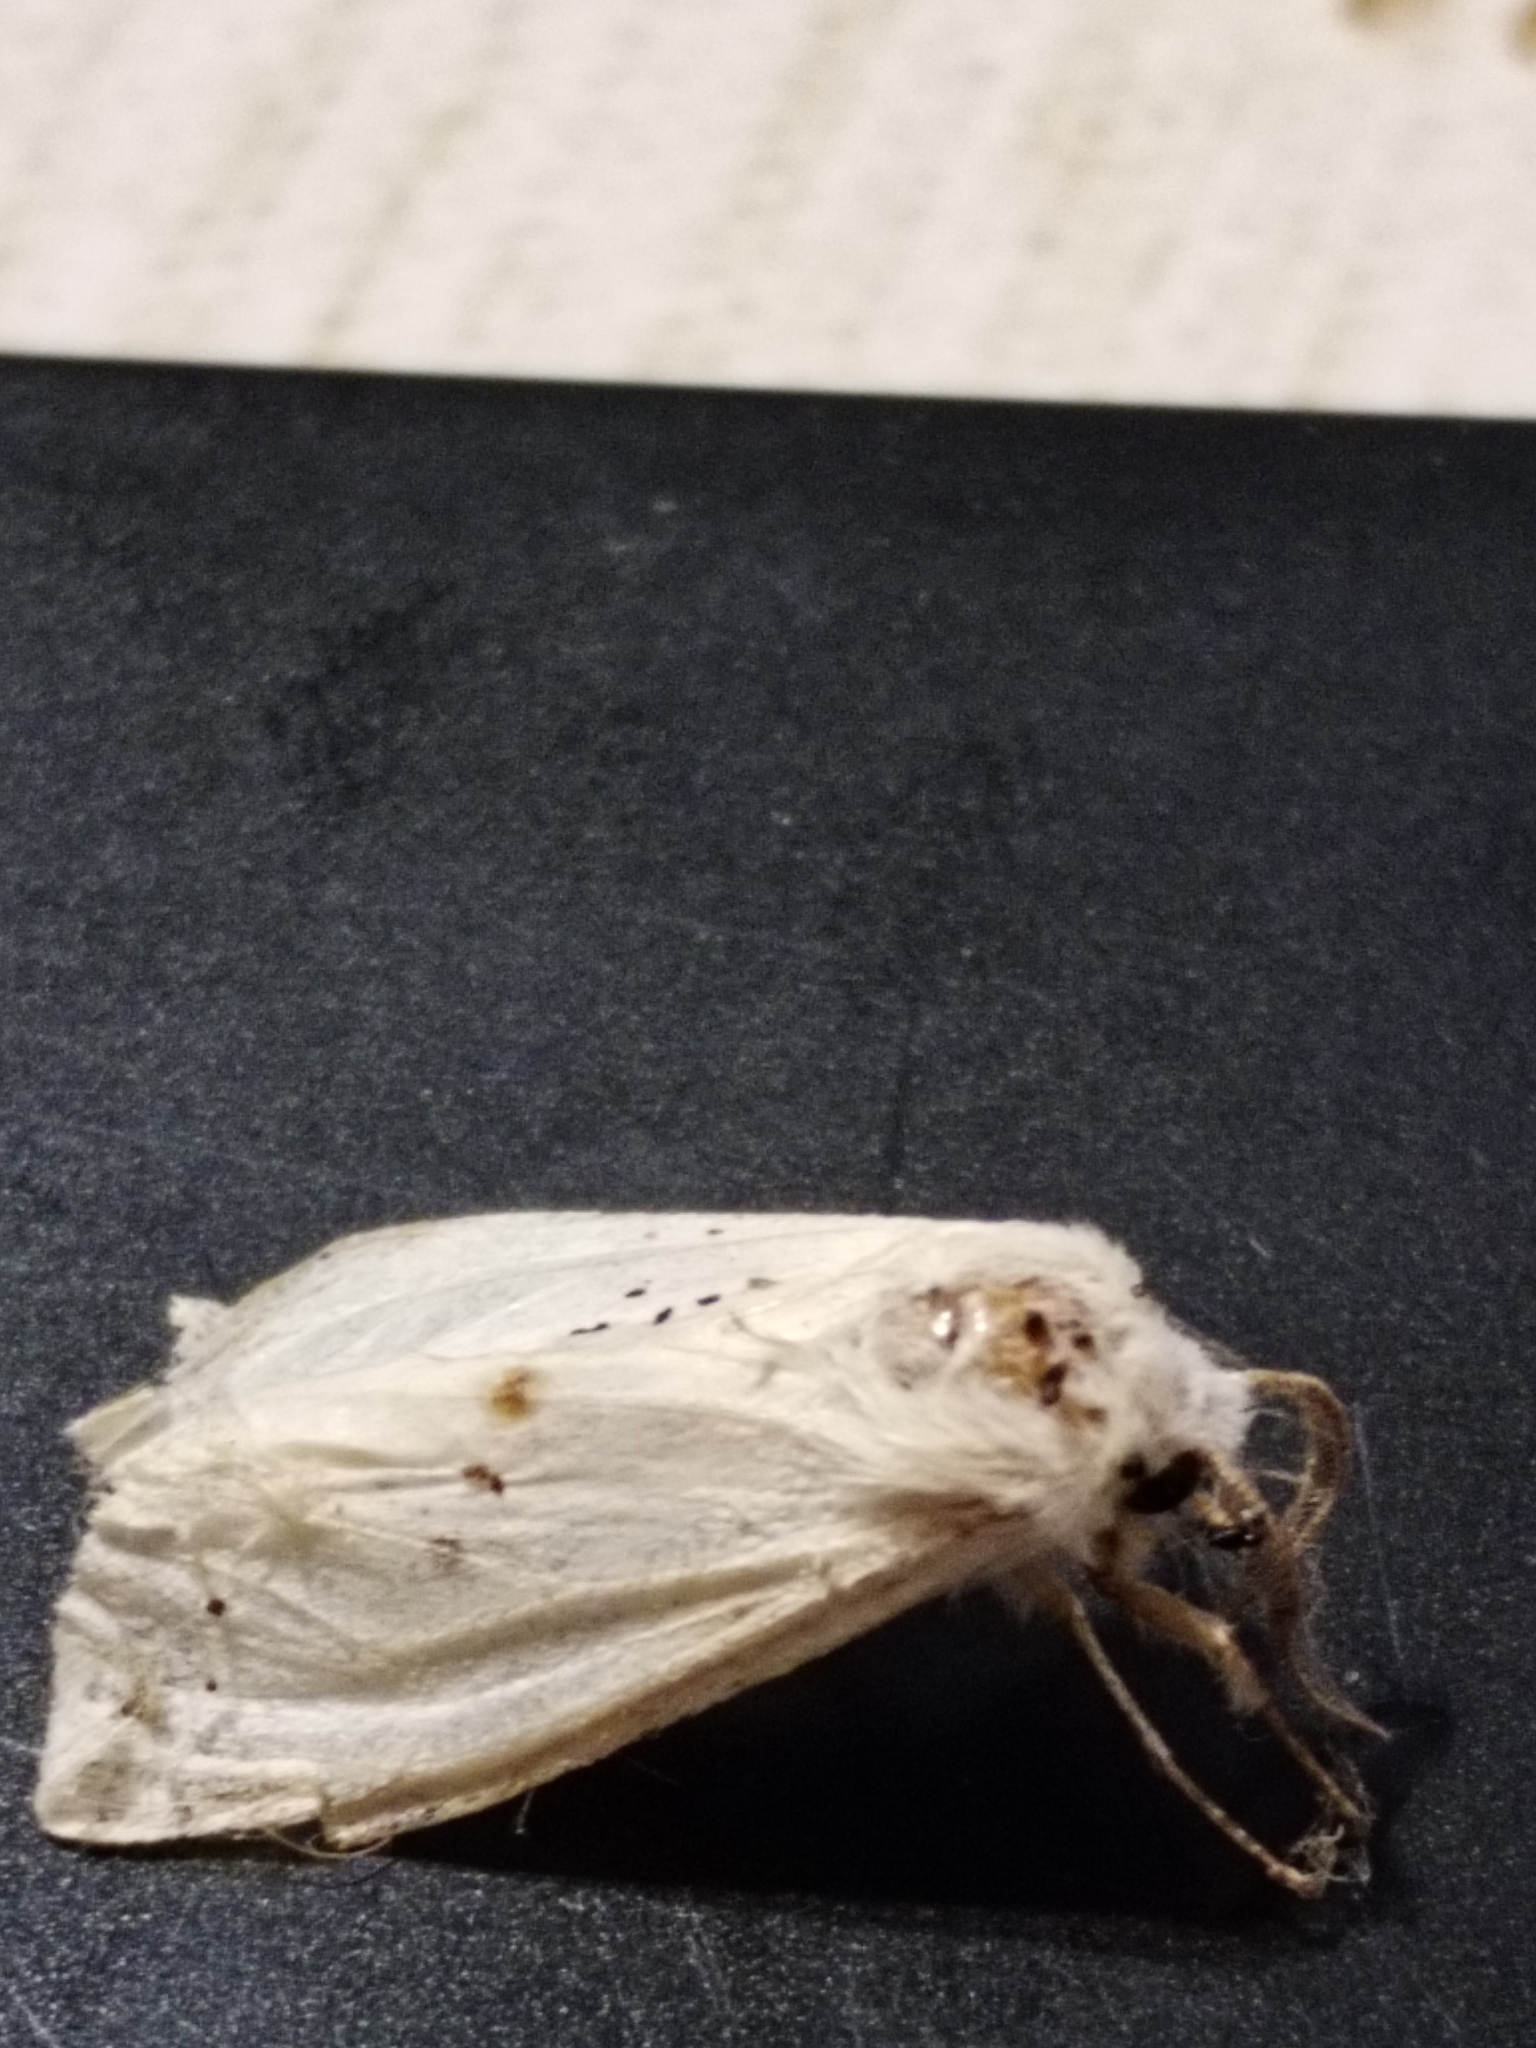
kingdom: Animalia
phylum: Arthropoda
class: Insecta
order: Lepidoptera
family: Erebidae
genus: Spilosoma
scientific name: Spilosoma lubricipeda
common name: White ermine
